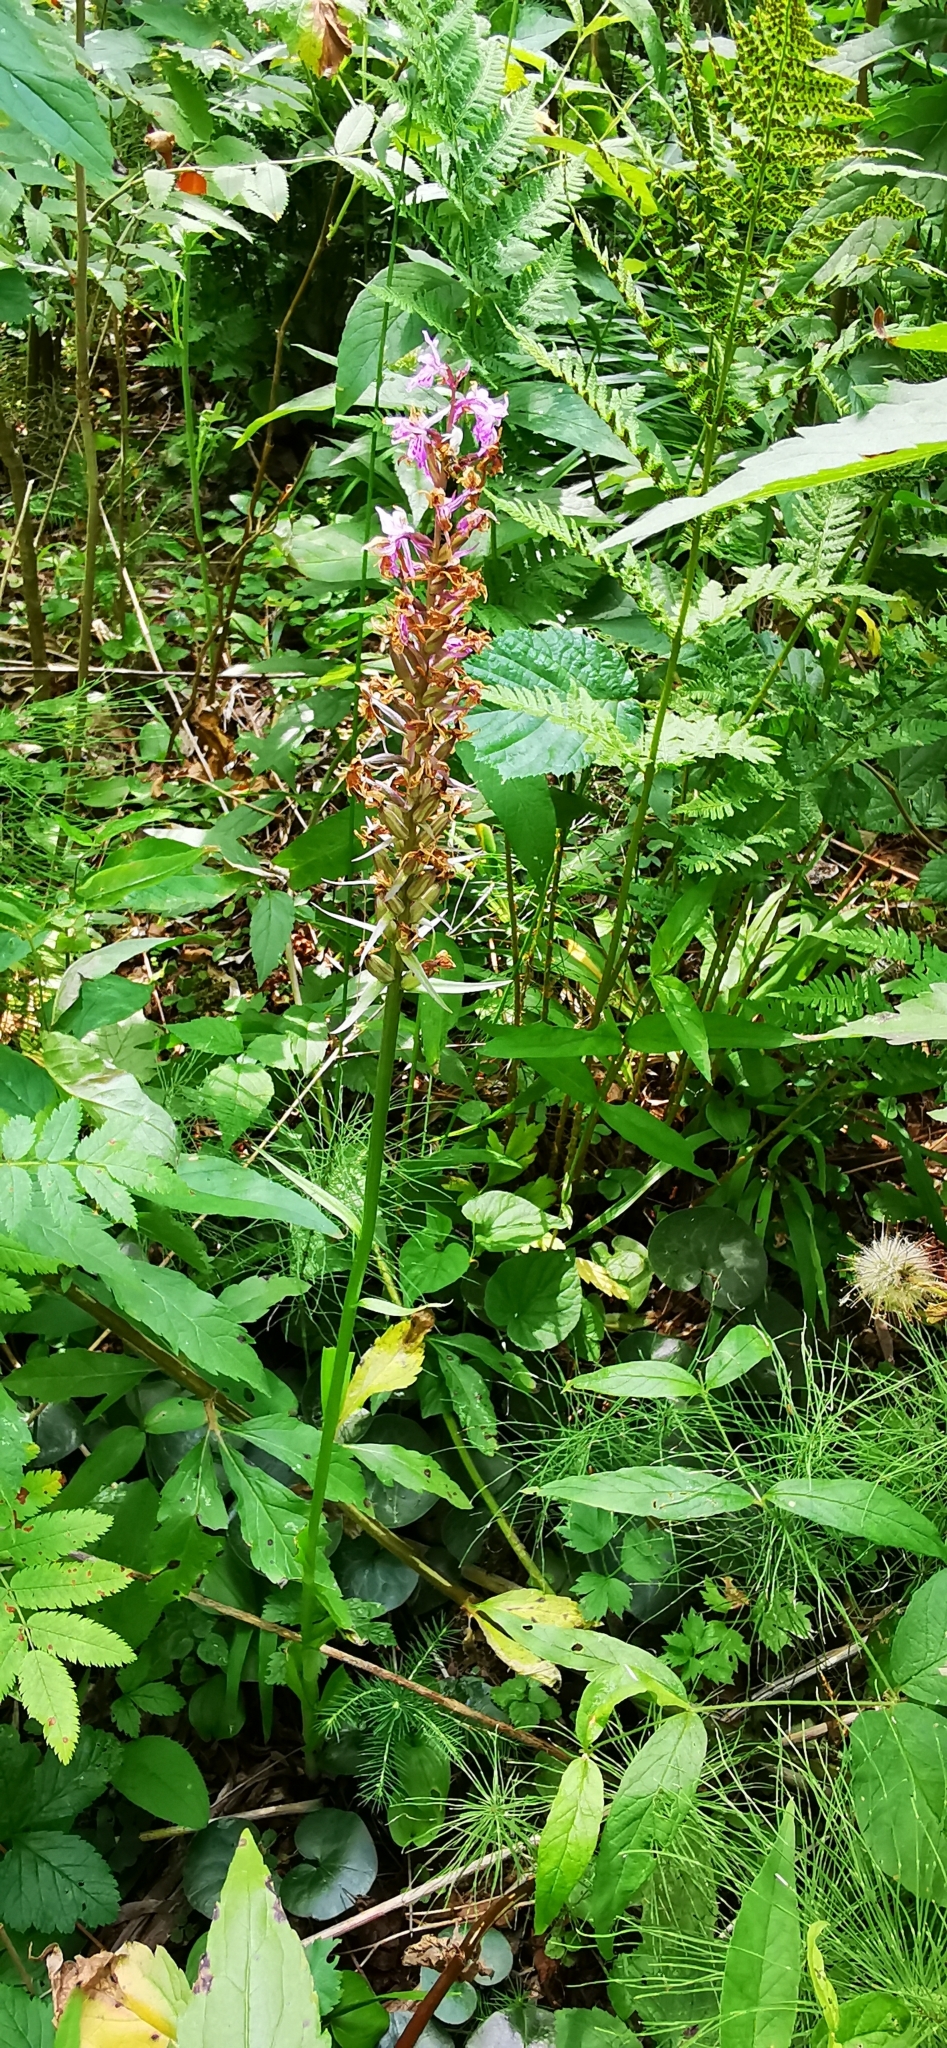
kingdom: Plantae
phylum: Tracheophyta
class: Liliopsida
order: Asparagales
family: Orchidaceae
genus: Dactylorhiza
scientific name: Dactylorhiza maculata
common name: Heath spotted-orchid
